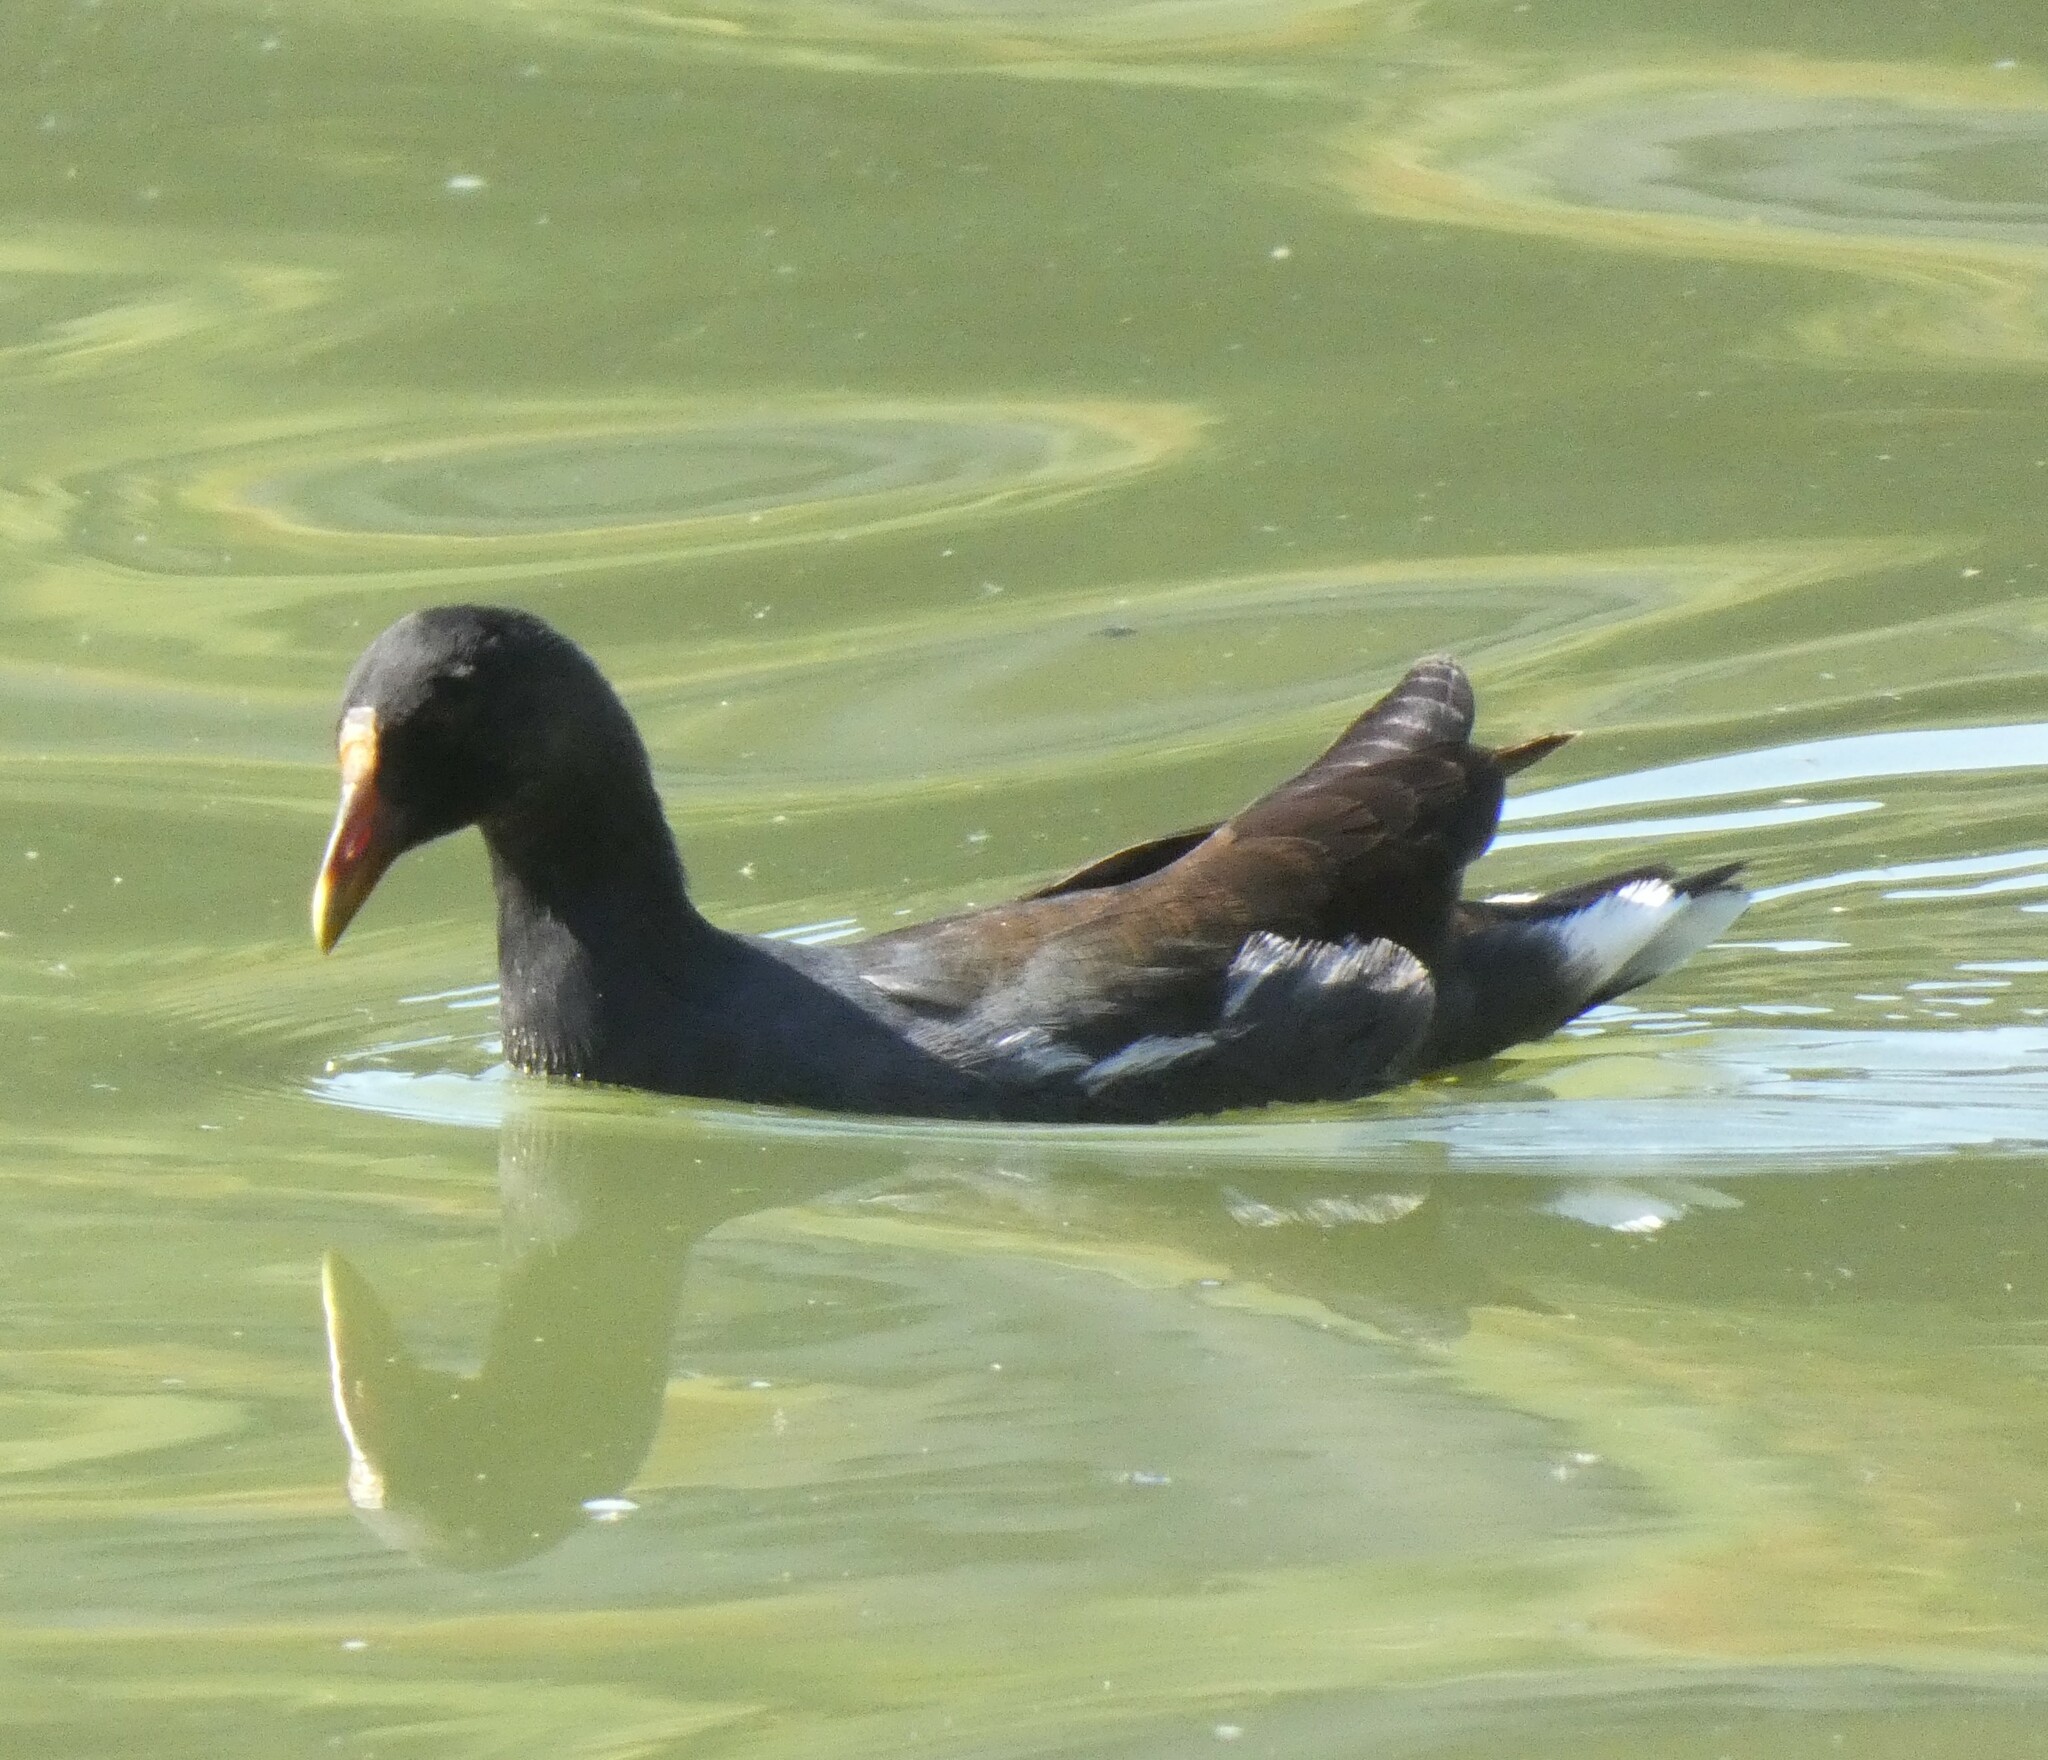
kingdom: Animalia
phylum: Chordata
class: Aves
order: Gruiformes
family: Rallidae
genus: Gallinula
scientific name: Gallinula chloropus
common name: Common moorhen
